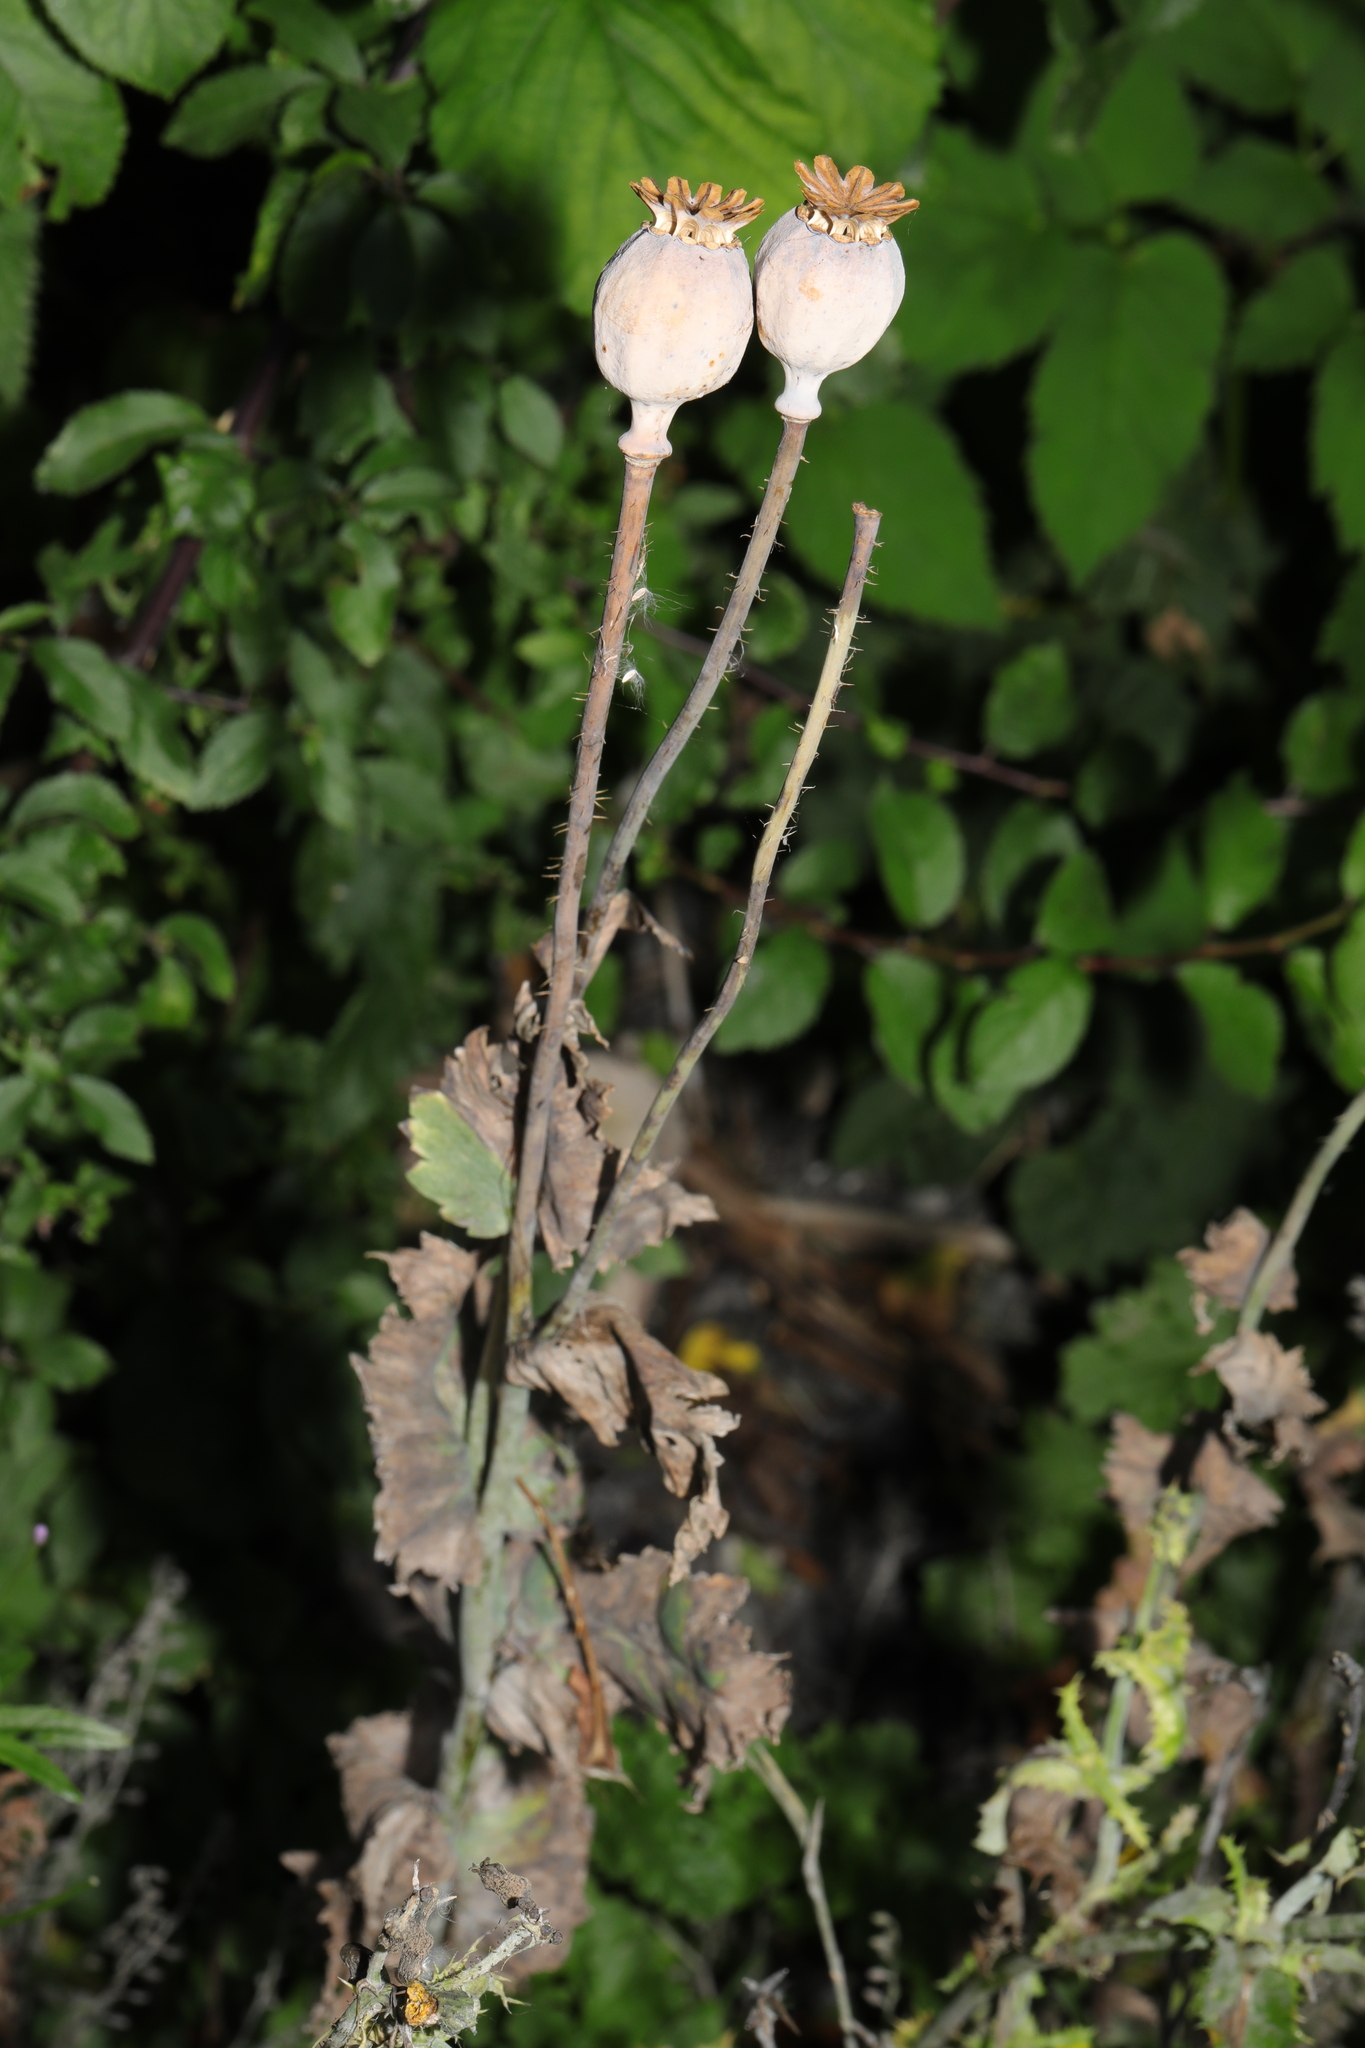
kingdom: Plantae
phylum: Tracheophyta
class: Magnoliopsida
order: Ranunculales
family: Papaveraceae
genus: Papaver
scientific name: Papaver somniferum
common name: Opium poppy
